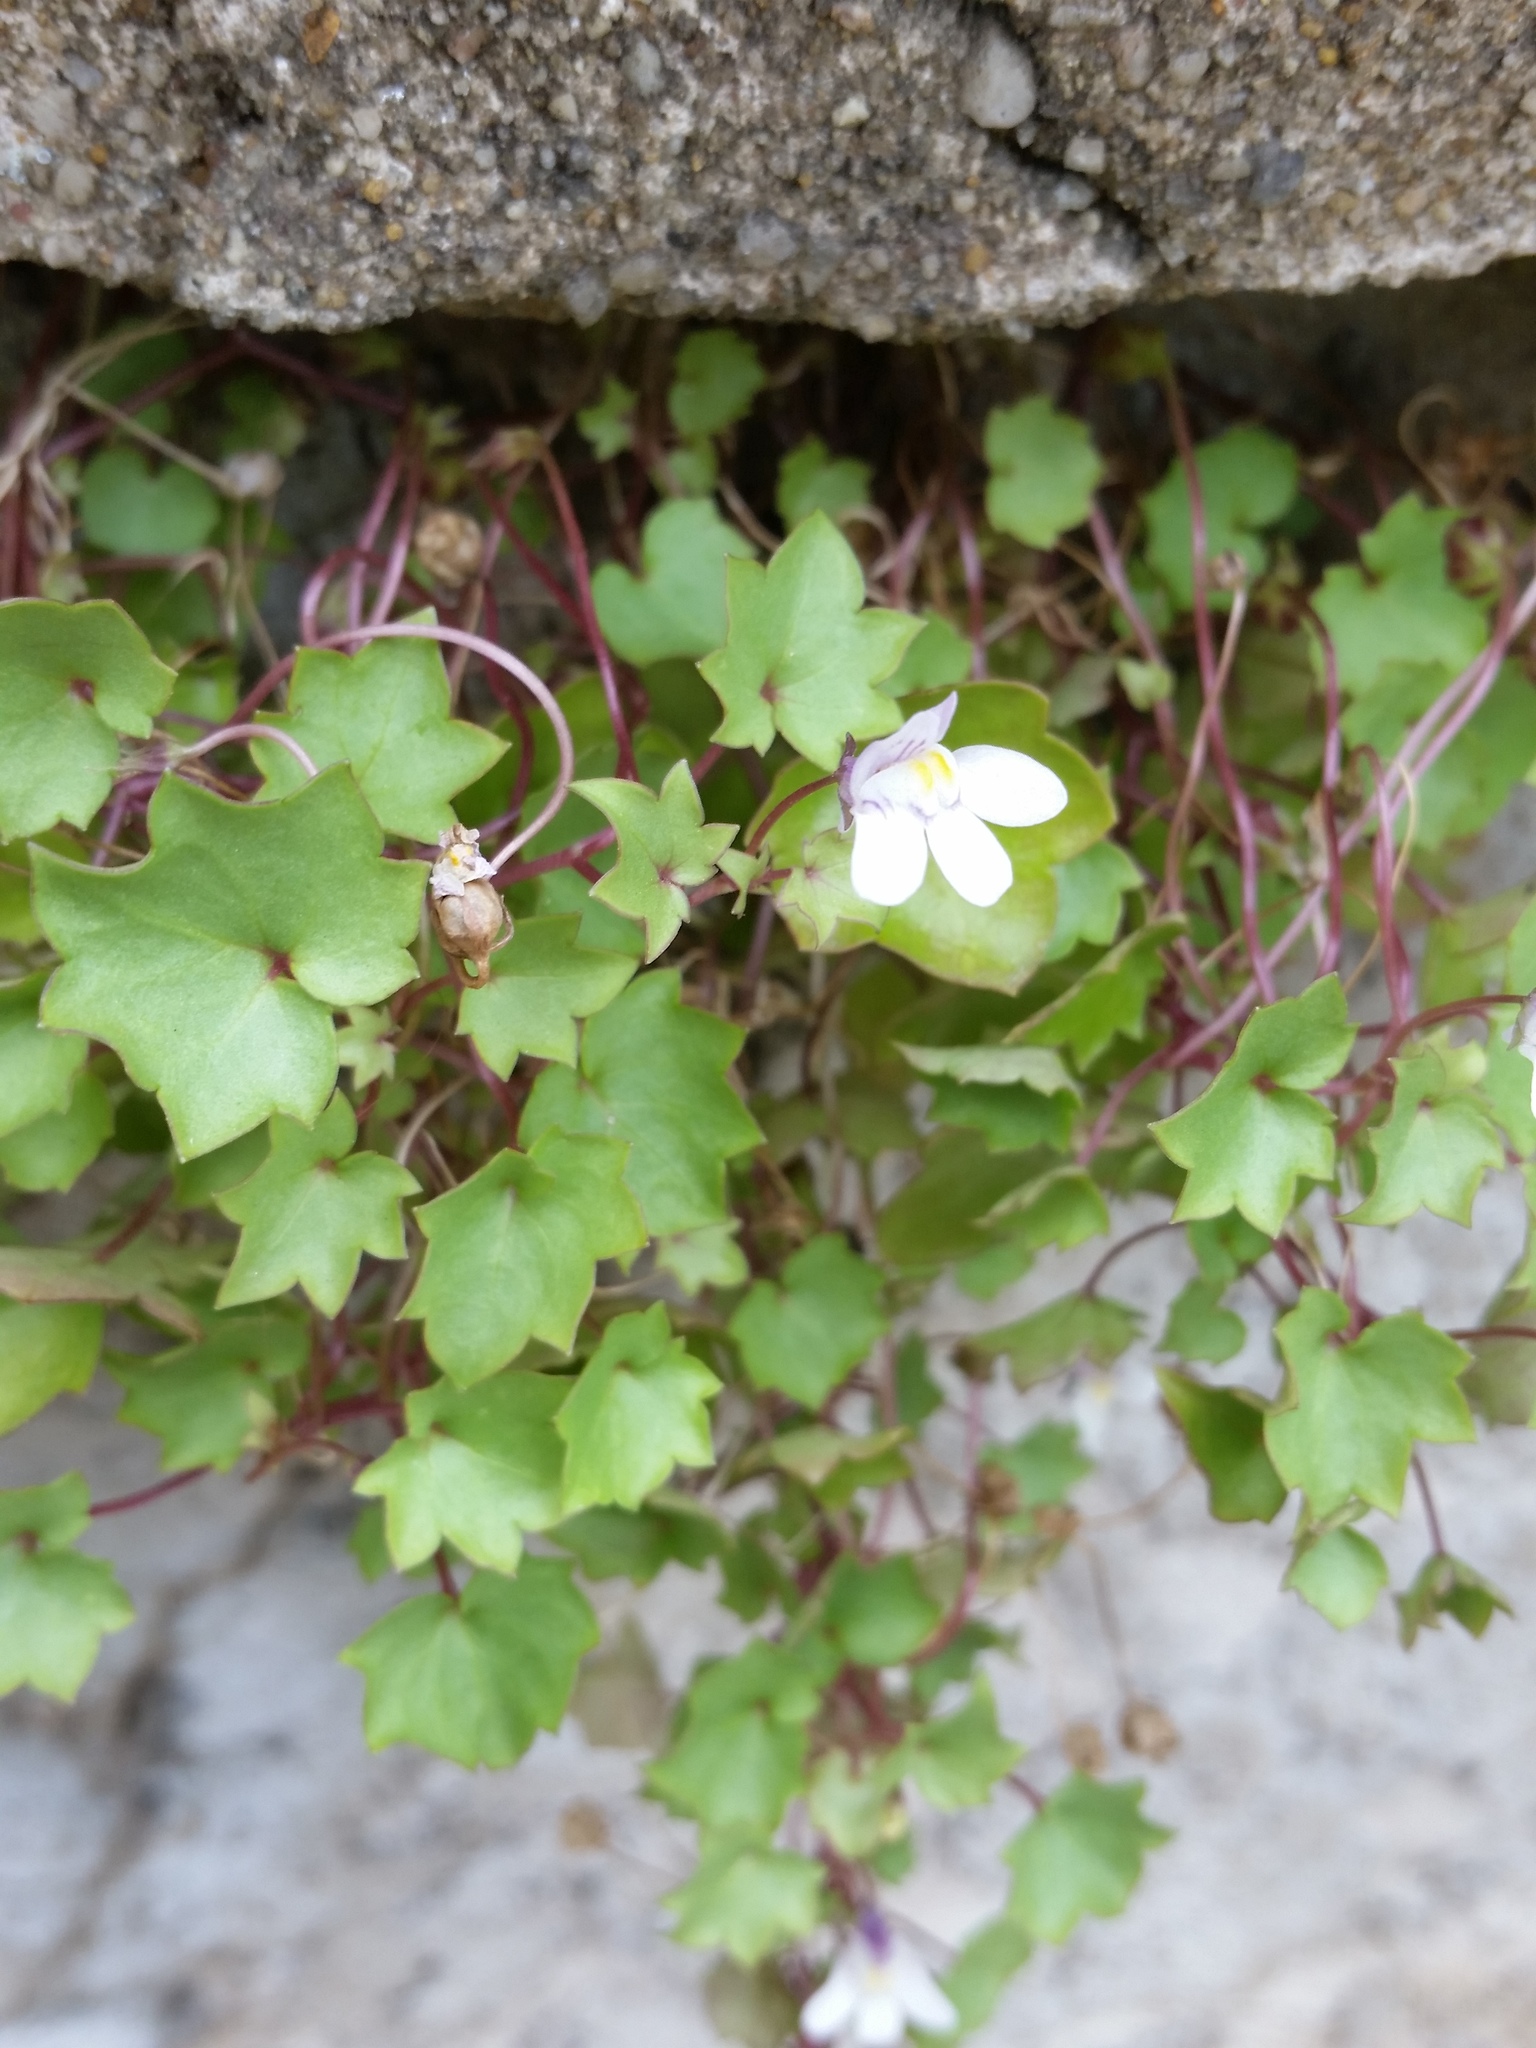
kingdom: Plantae
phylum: Tracheophyta
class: Magnoliopsida
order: Lamiales
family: Plantaginaceae
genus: Cymbalaria
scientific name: Cymbalaria muralis
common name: Ivy-leaved toadflax
